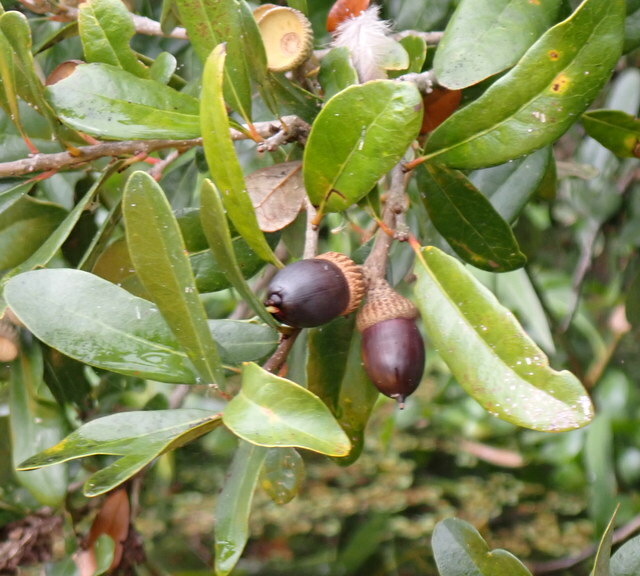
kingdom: Plantae
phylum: Tracheophyta
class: Magnoliopsida
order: Fagales
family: Fagaceae
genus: Quercus
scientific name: Quercus virginiana
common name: Southern live oak
